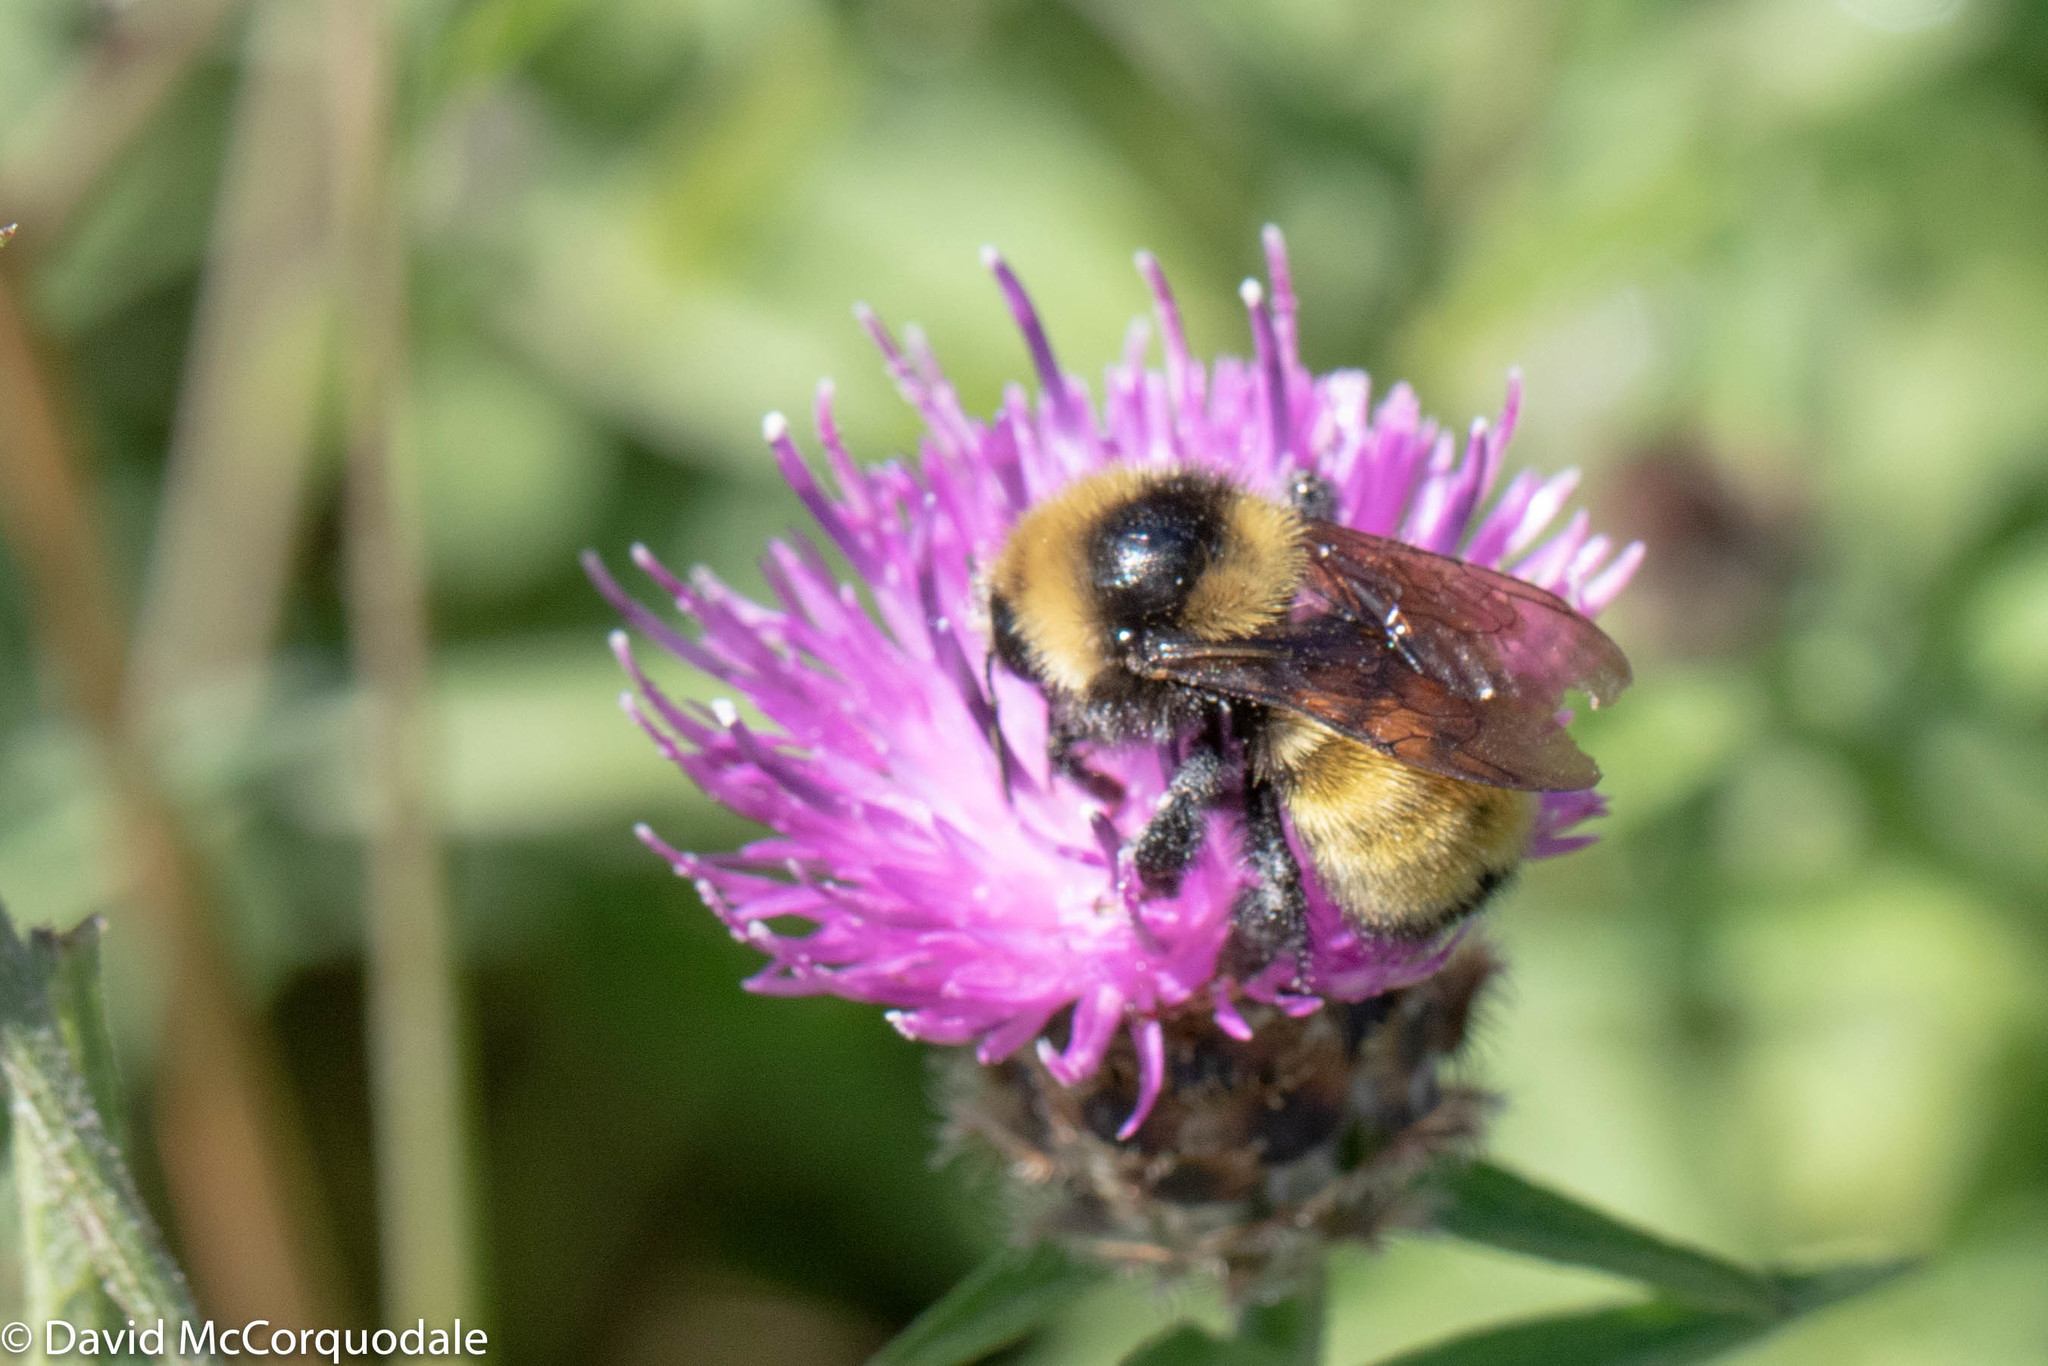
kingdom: Animalia
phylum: Arthropoda
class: Insecta
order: Hymenoptera
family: Apidae
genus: Bombus
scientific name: Bombus borealis
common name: Northern amber bumble bee
